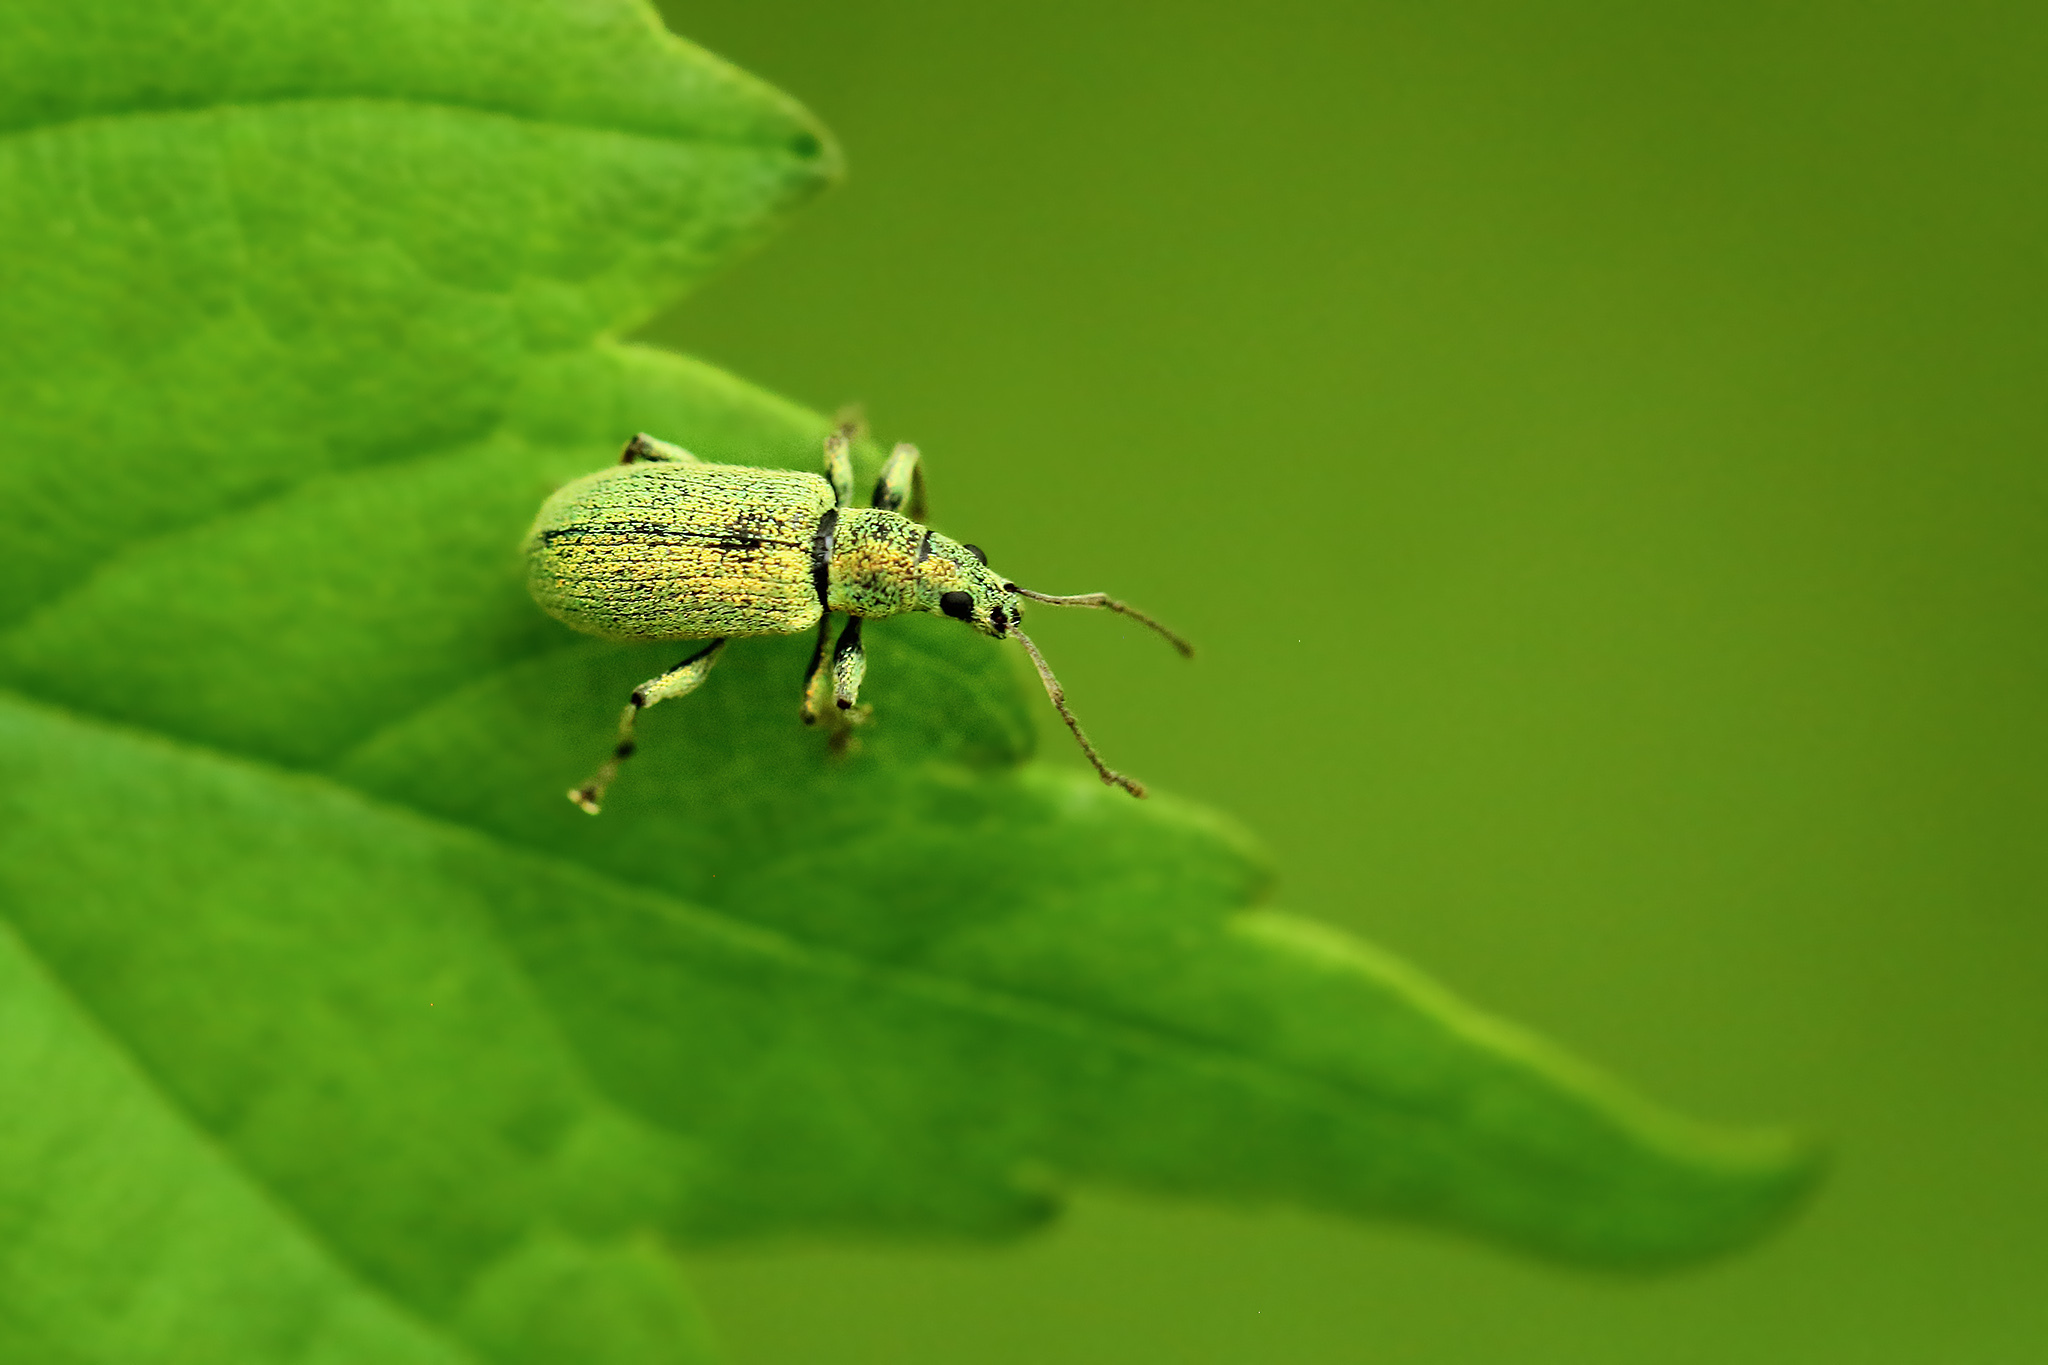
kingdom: Animalia
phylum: Arthropoda
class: Insecta
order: Coleoptera
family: Curculionidae
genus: Phyllobius
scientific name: Phyllobius argentatus
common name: Silver-green leaf weevil
